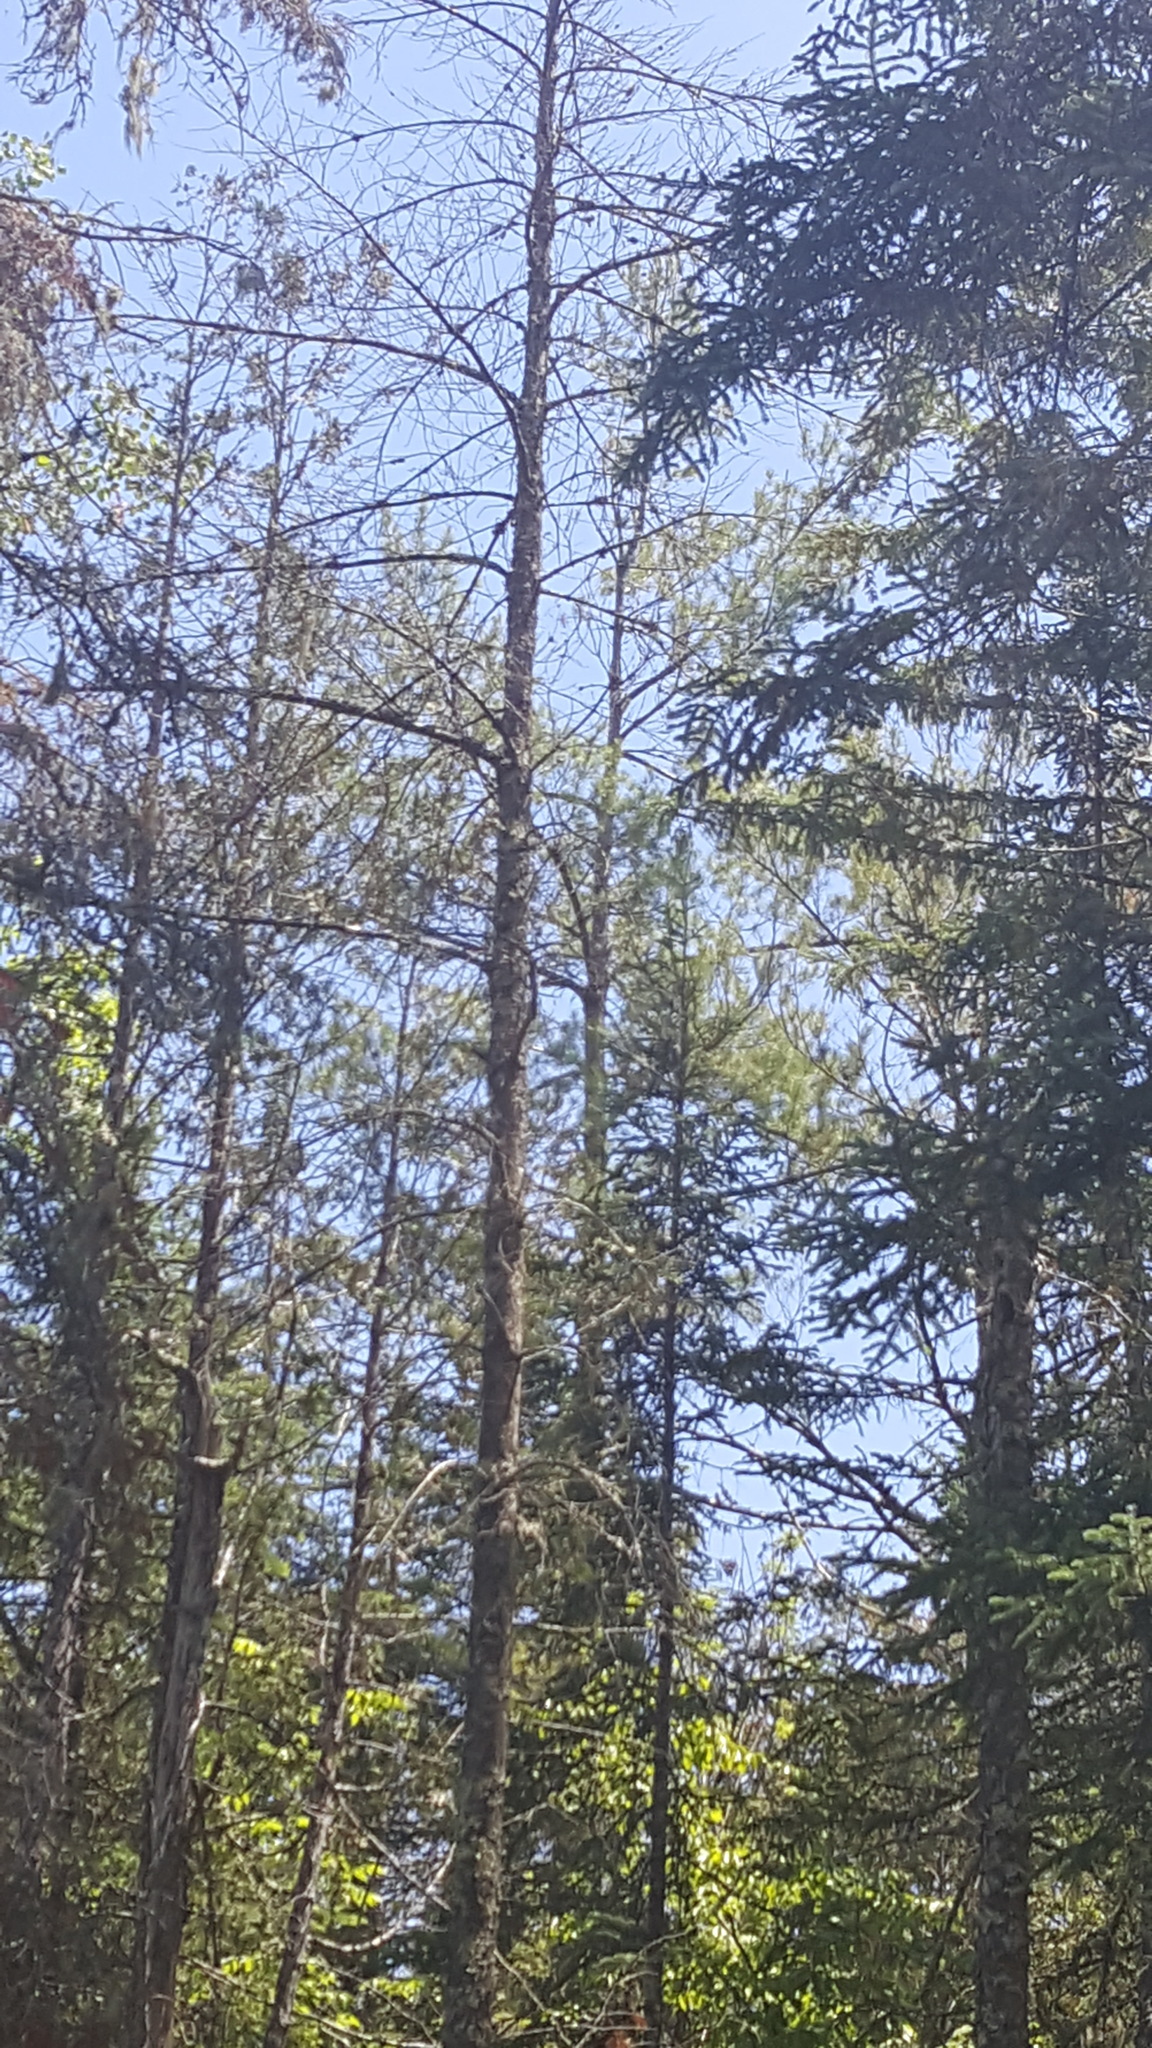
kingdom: Plantae
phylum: Tracheophyta
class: Pinopsida
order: Pinales
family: Pinaceae
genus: Pinus
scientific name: Pinus strobus
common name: Weymouth pine
